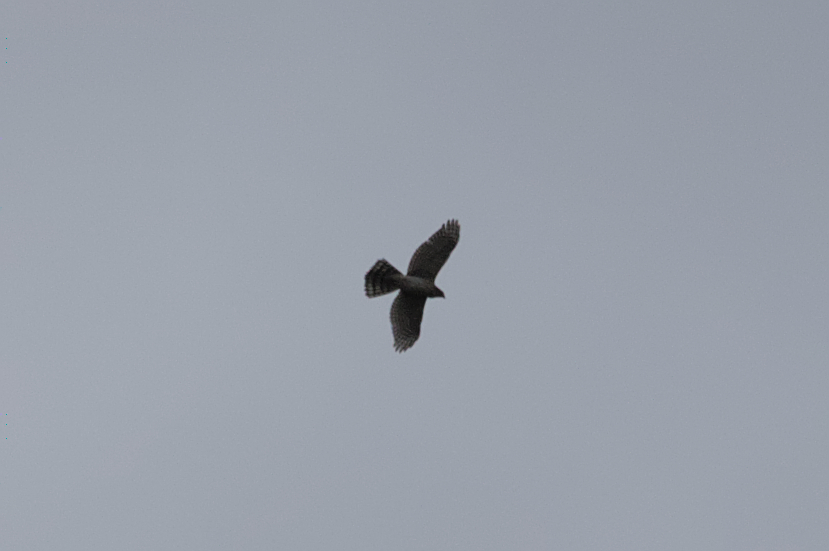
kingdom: Animalia
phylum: Chordata
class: Aves
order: Accipitriformes
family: Accipitridae
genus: Accipiter
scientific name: Accipiter cooperii
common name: Cooper's hawk
